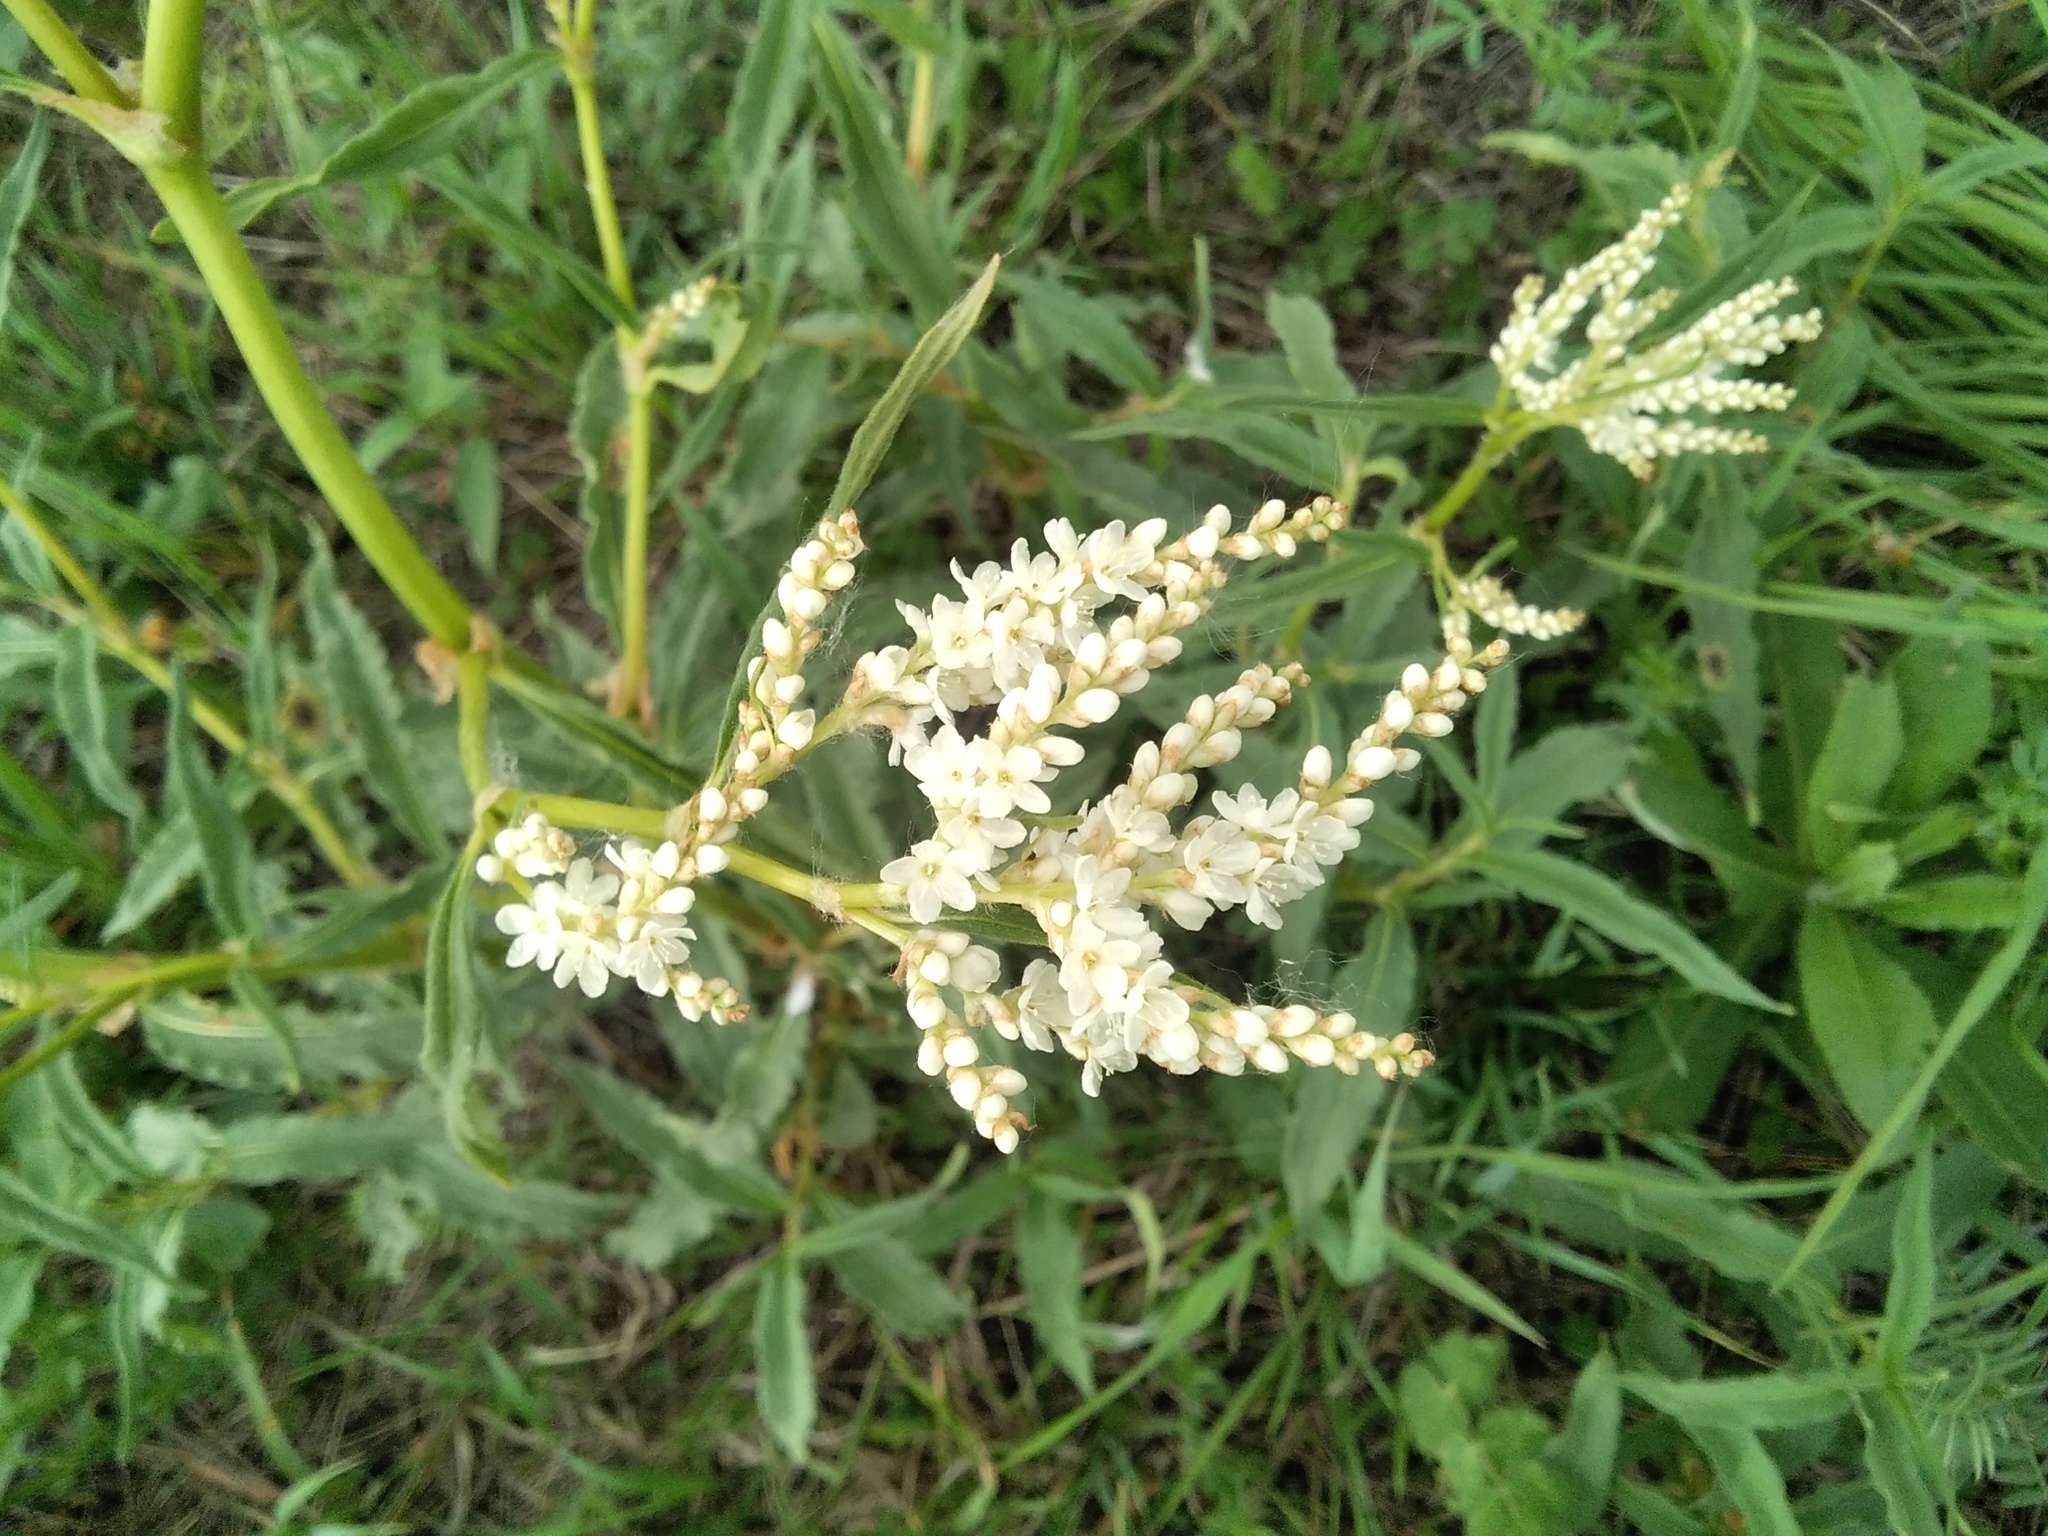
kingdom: Plantae
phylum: Tracheophyta
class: Magnoliopsida
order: Caryophyllales
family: Polygonaceae
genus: Koenigia
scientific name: Koenigia alpina
